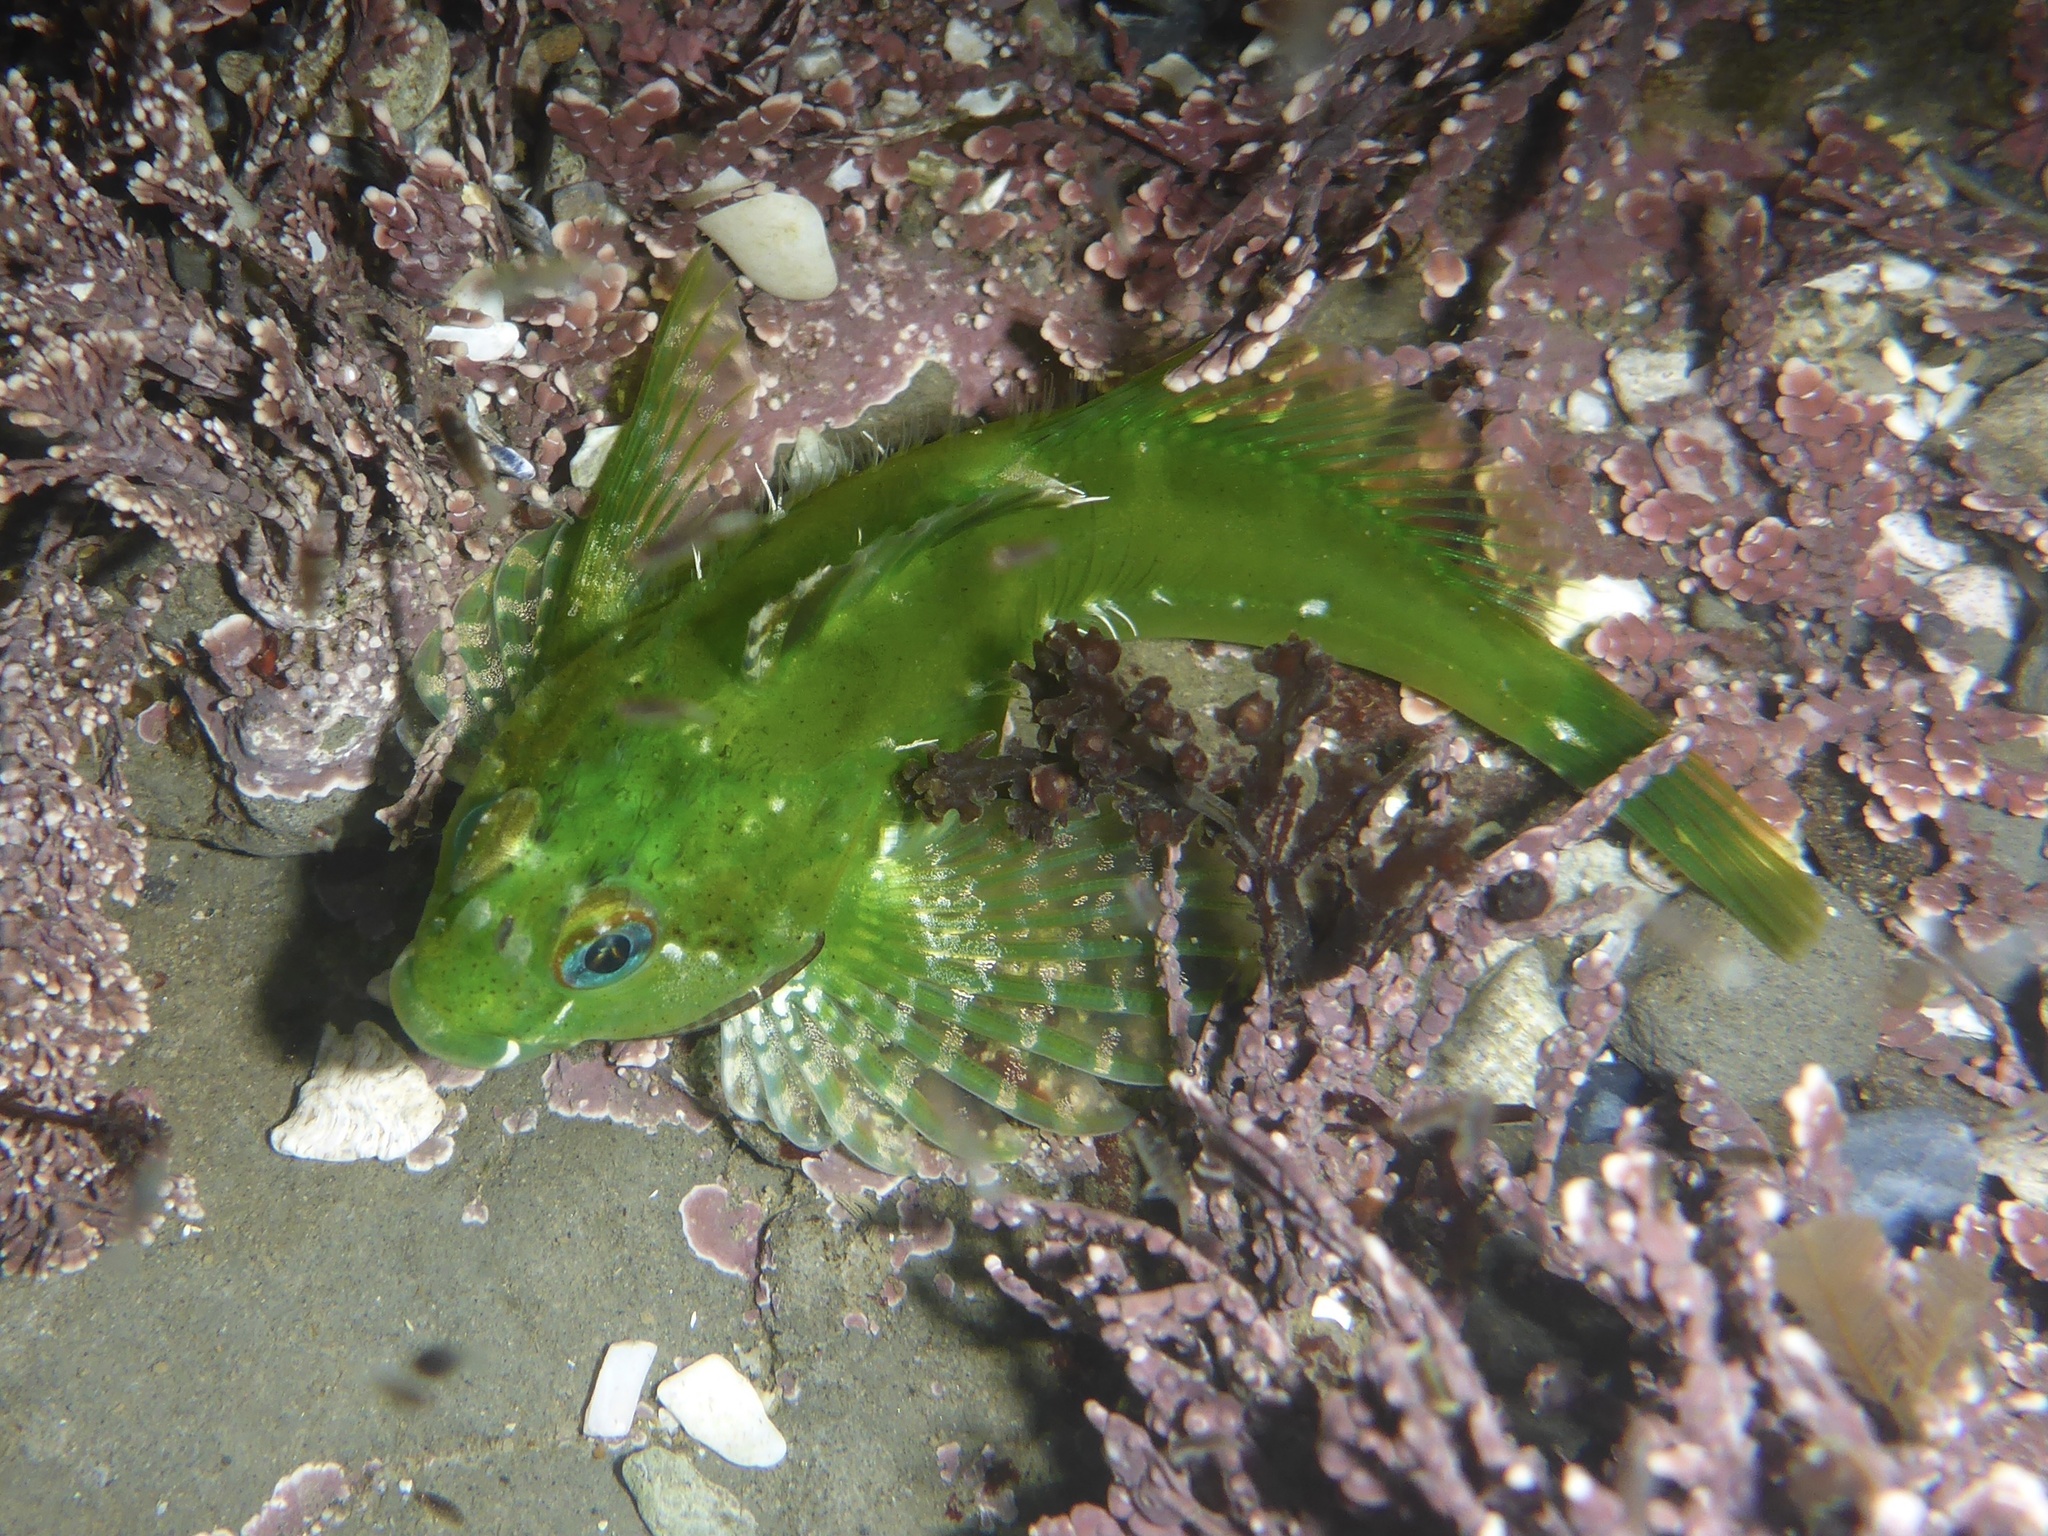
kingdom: Animalia
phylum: Chordata
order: Scorpaeniformes
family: Cottidae
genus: Oligocottus
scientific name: Oligocottus snyderi
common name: Fluffy sculpin
